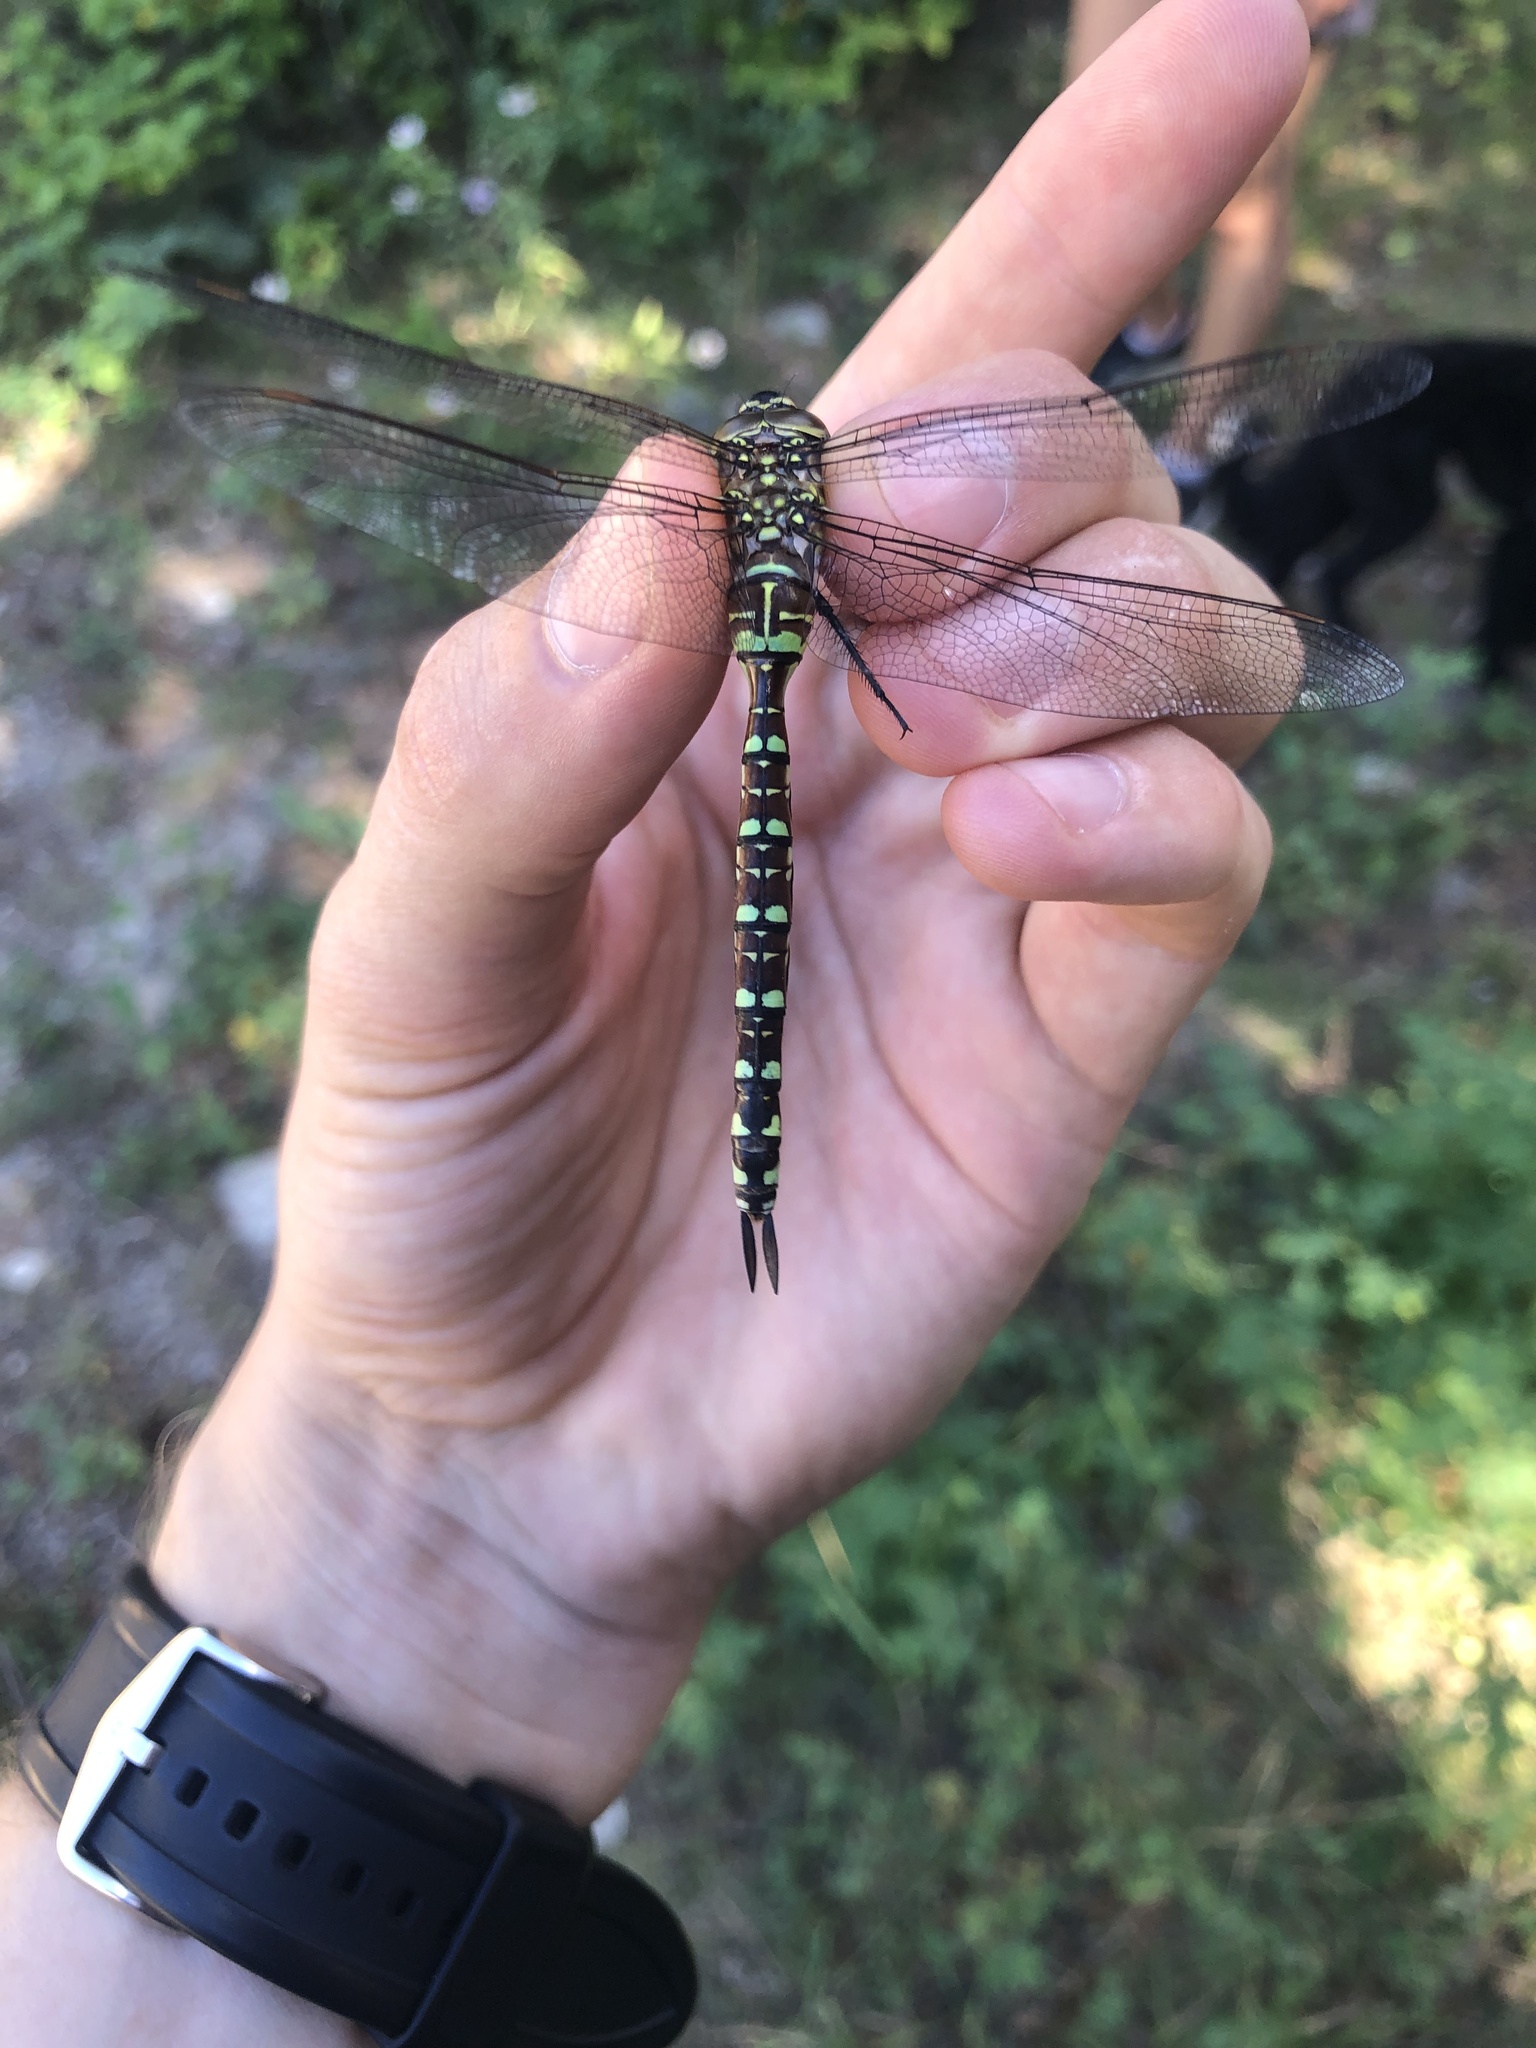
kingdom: Animalia
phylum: Arthropoda
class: Insecta
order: Odonata
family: Aeshnidae
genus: Aeshna
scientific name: Aeshna palmata
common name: Paddle-tailed darner
